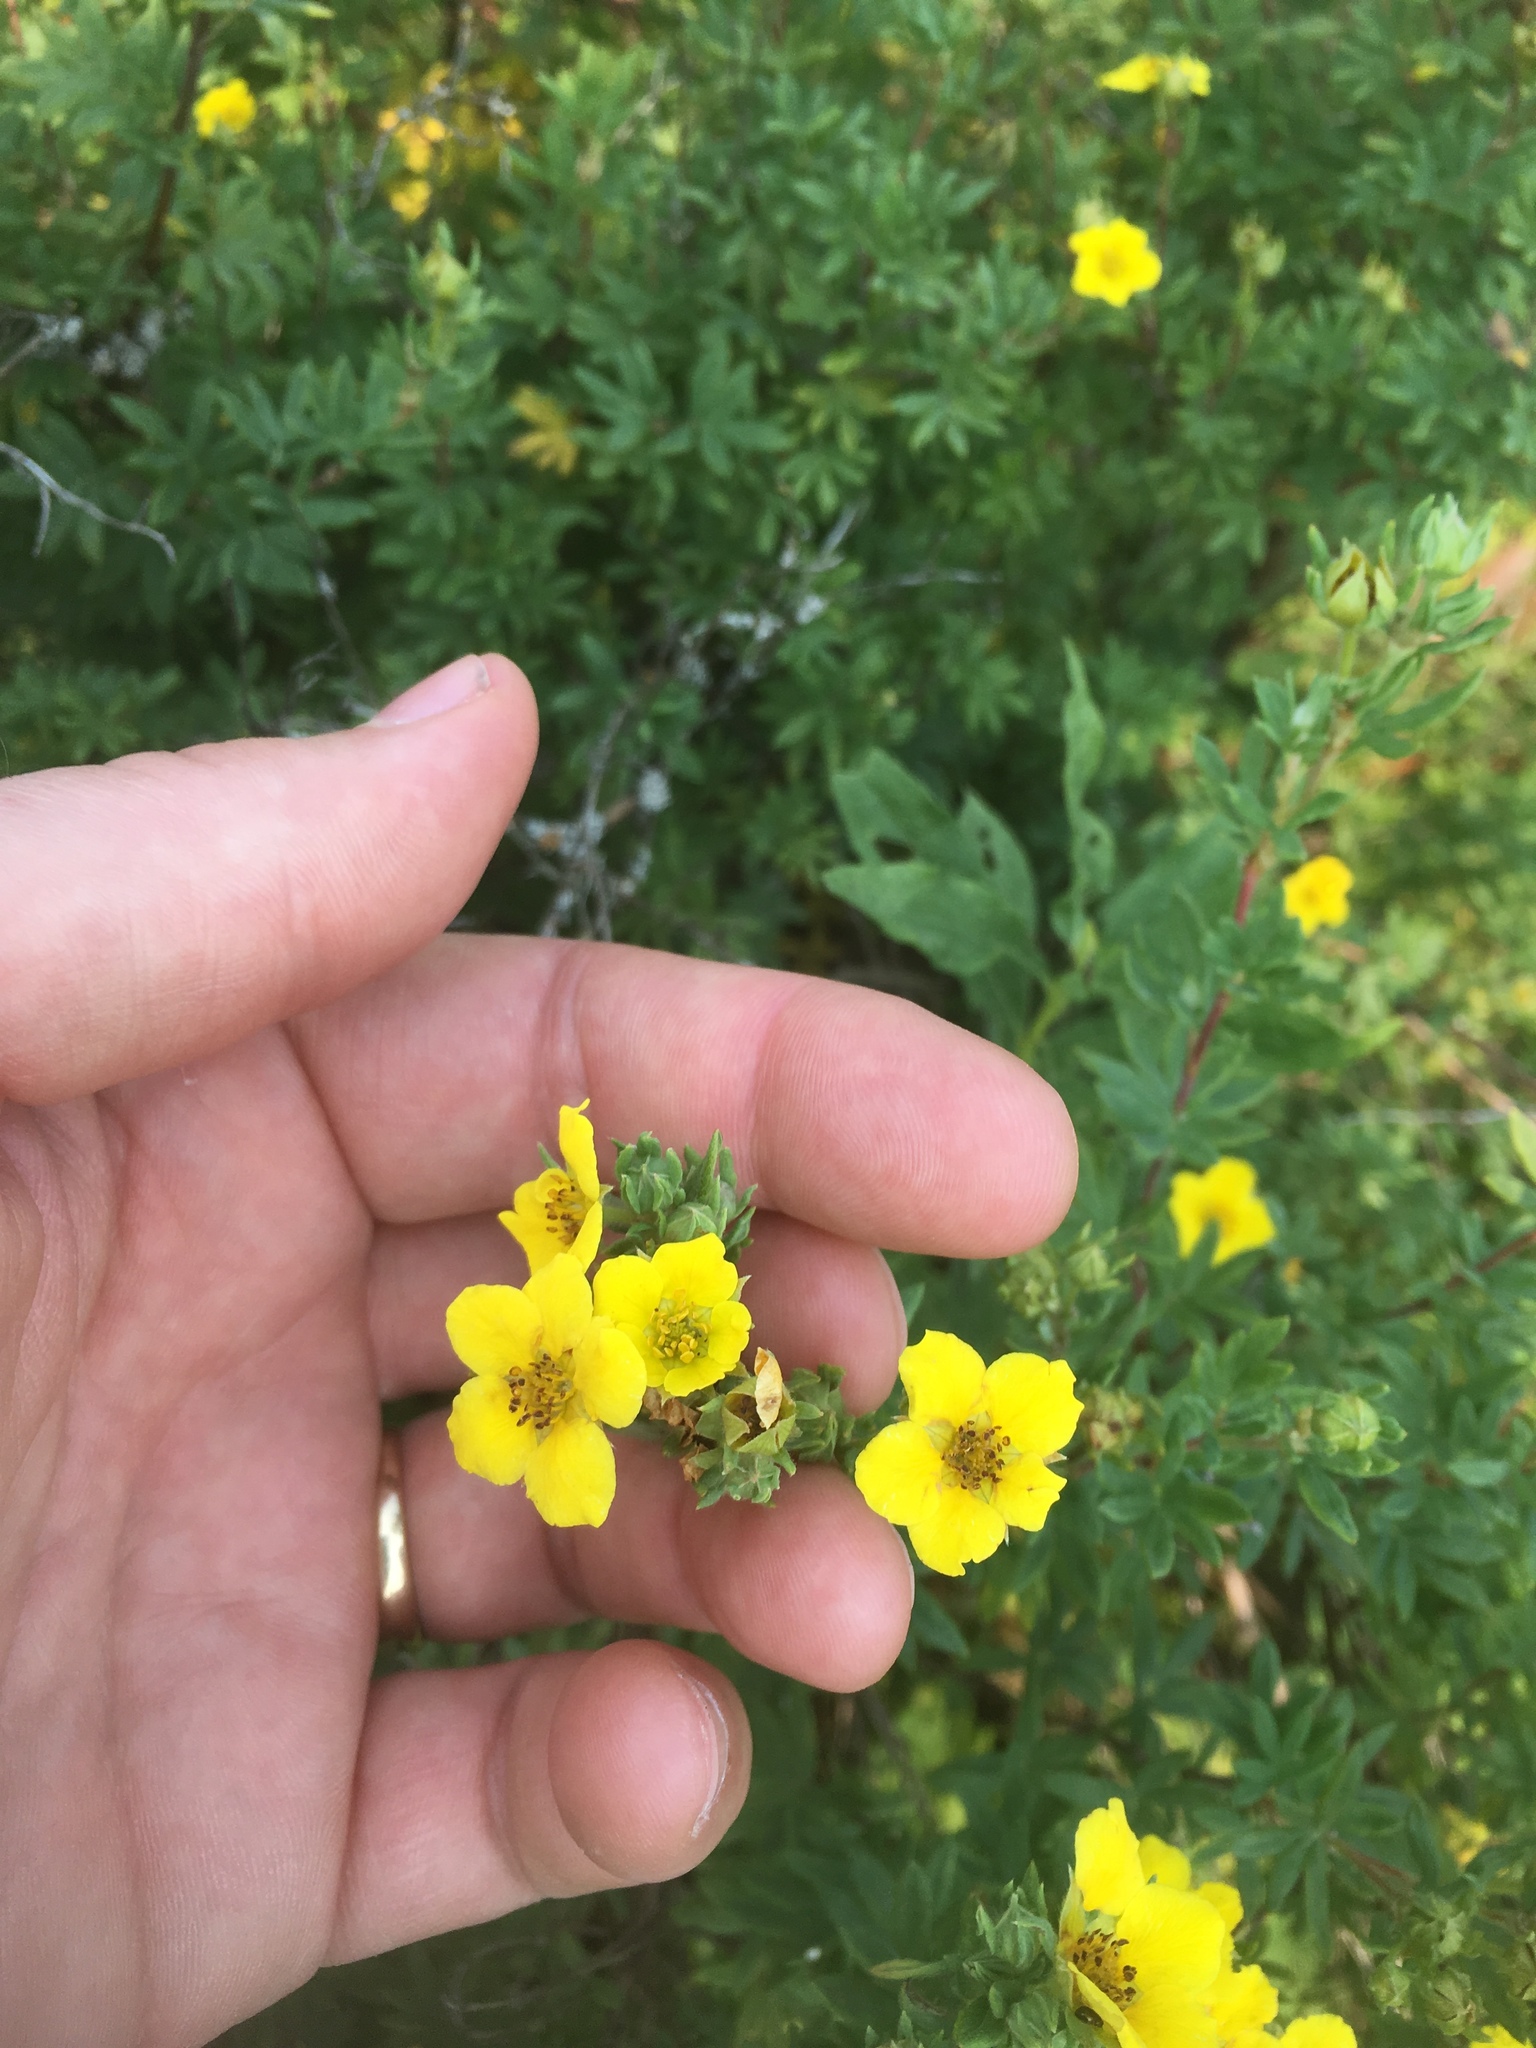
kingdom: Plantae
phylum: Tracheophyta
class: Magnoliopsida
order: Rosales
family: Rosaceae
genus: Dasiphora
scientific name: Dasiphora fruticosa
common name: Shrubby cinquefoil
